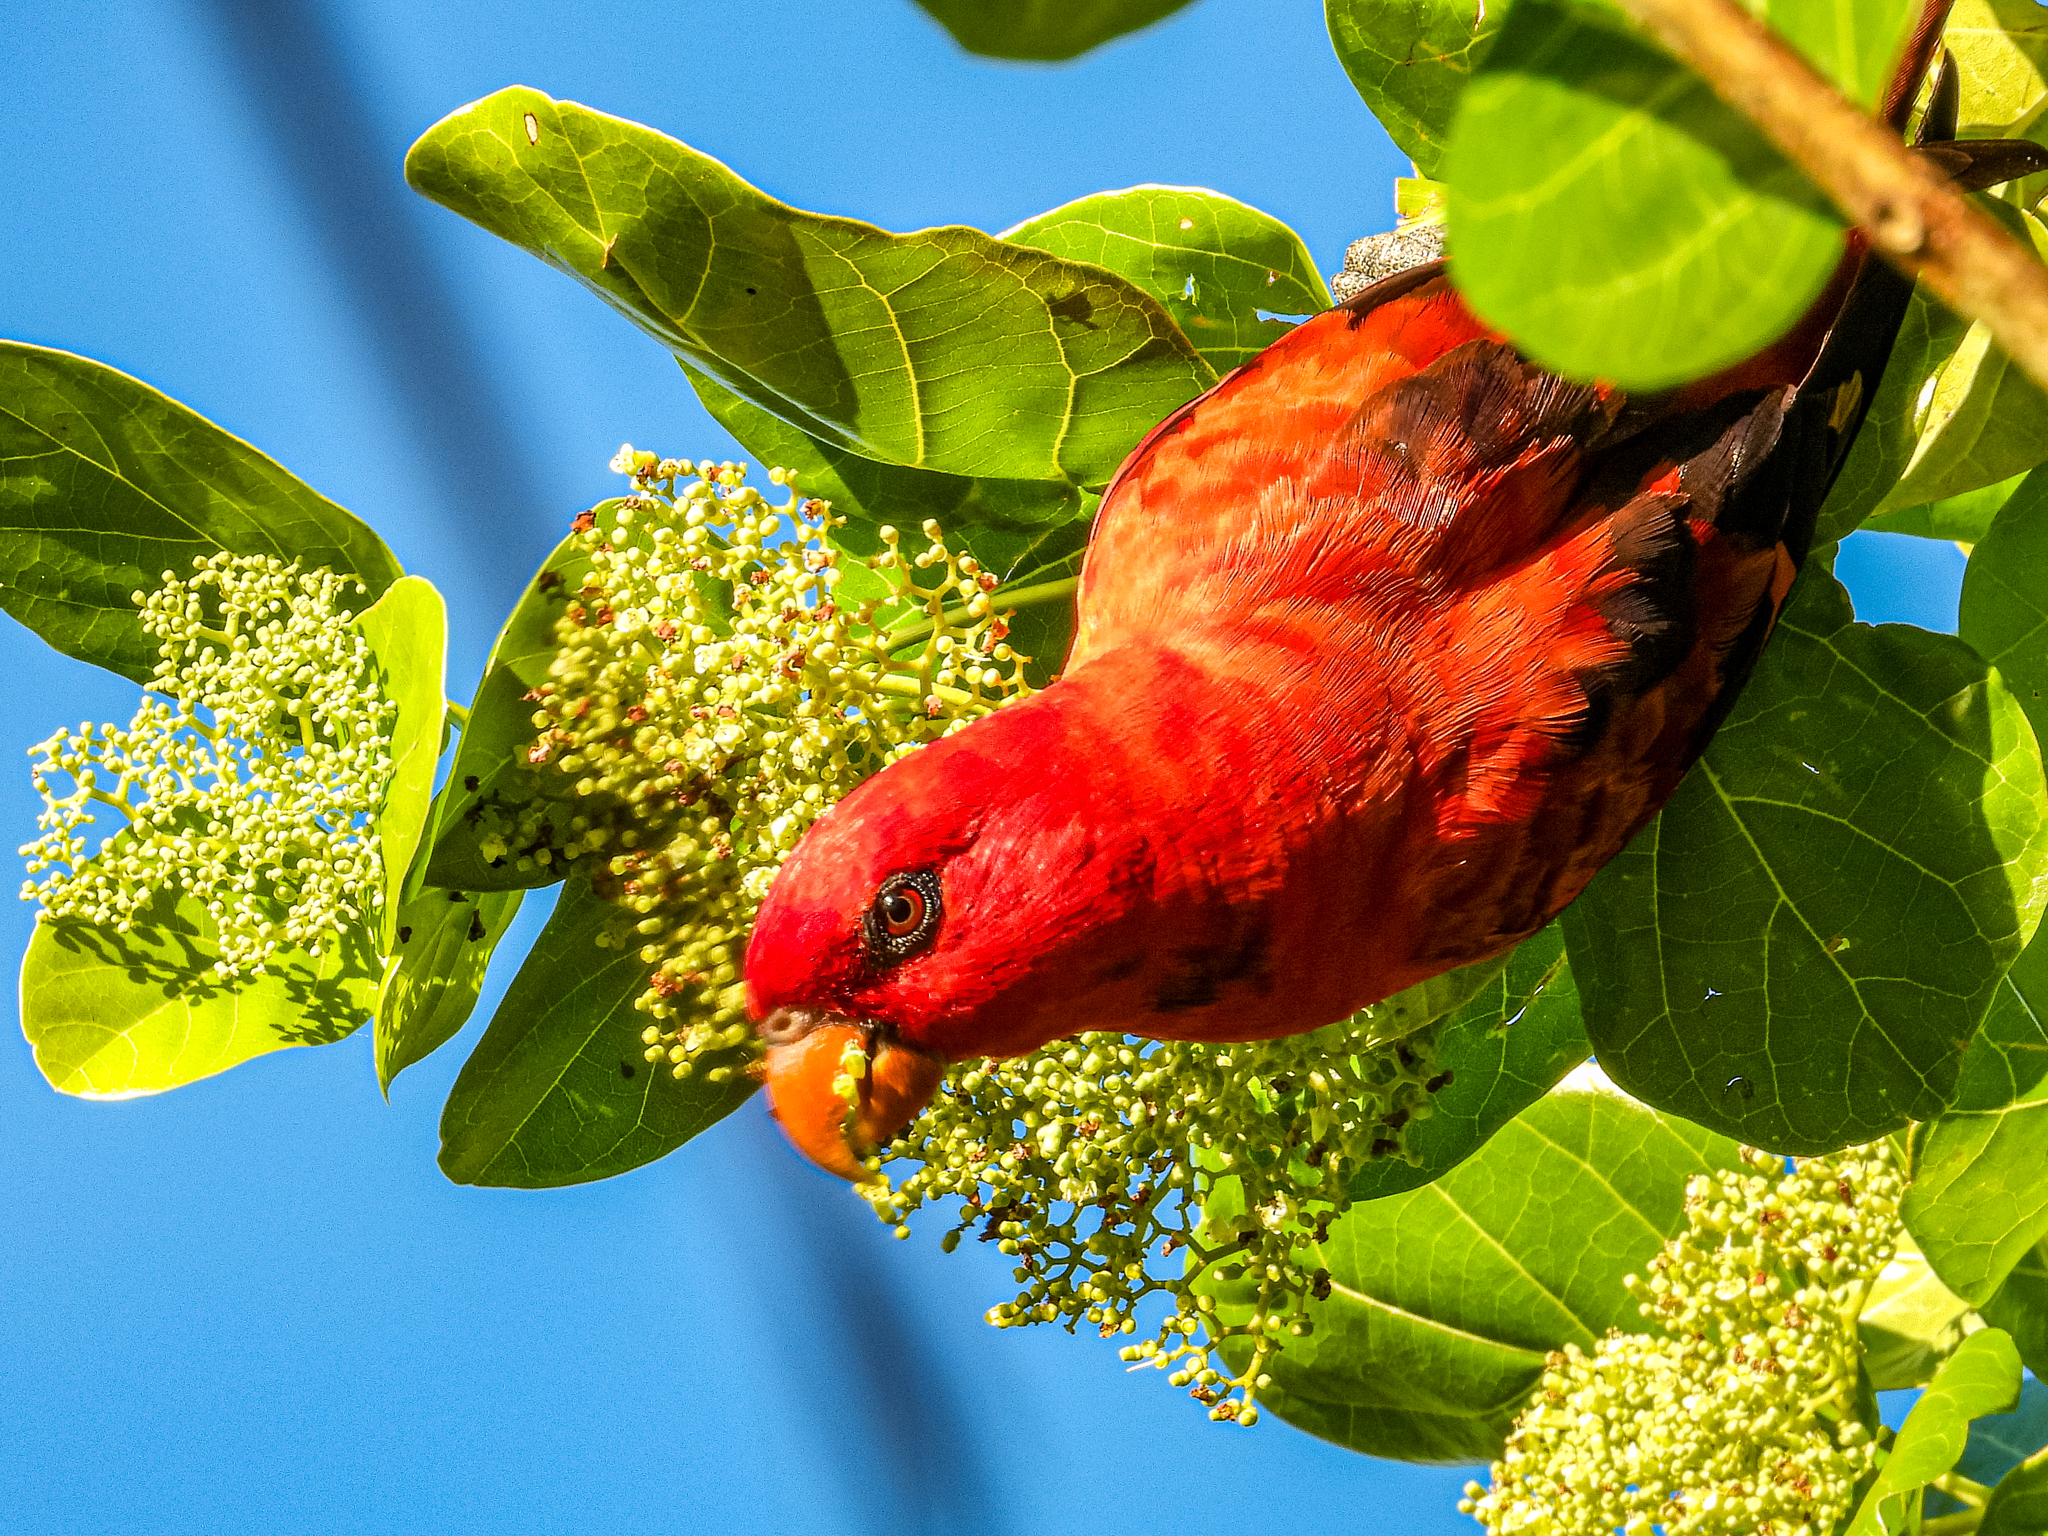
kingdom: Animalia
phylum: Chordata
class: Aves
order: Psittaciformes
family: Psittacidae
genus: Eos
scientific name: Eos squamata
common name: Violet-necked lory
